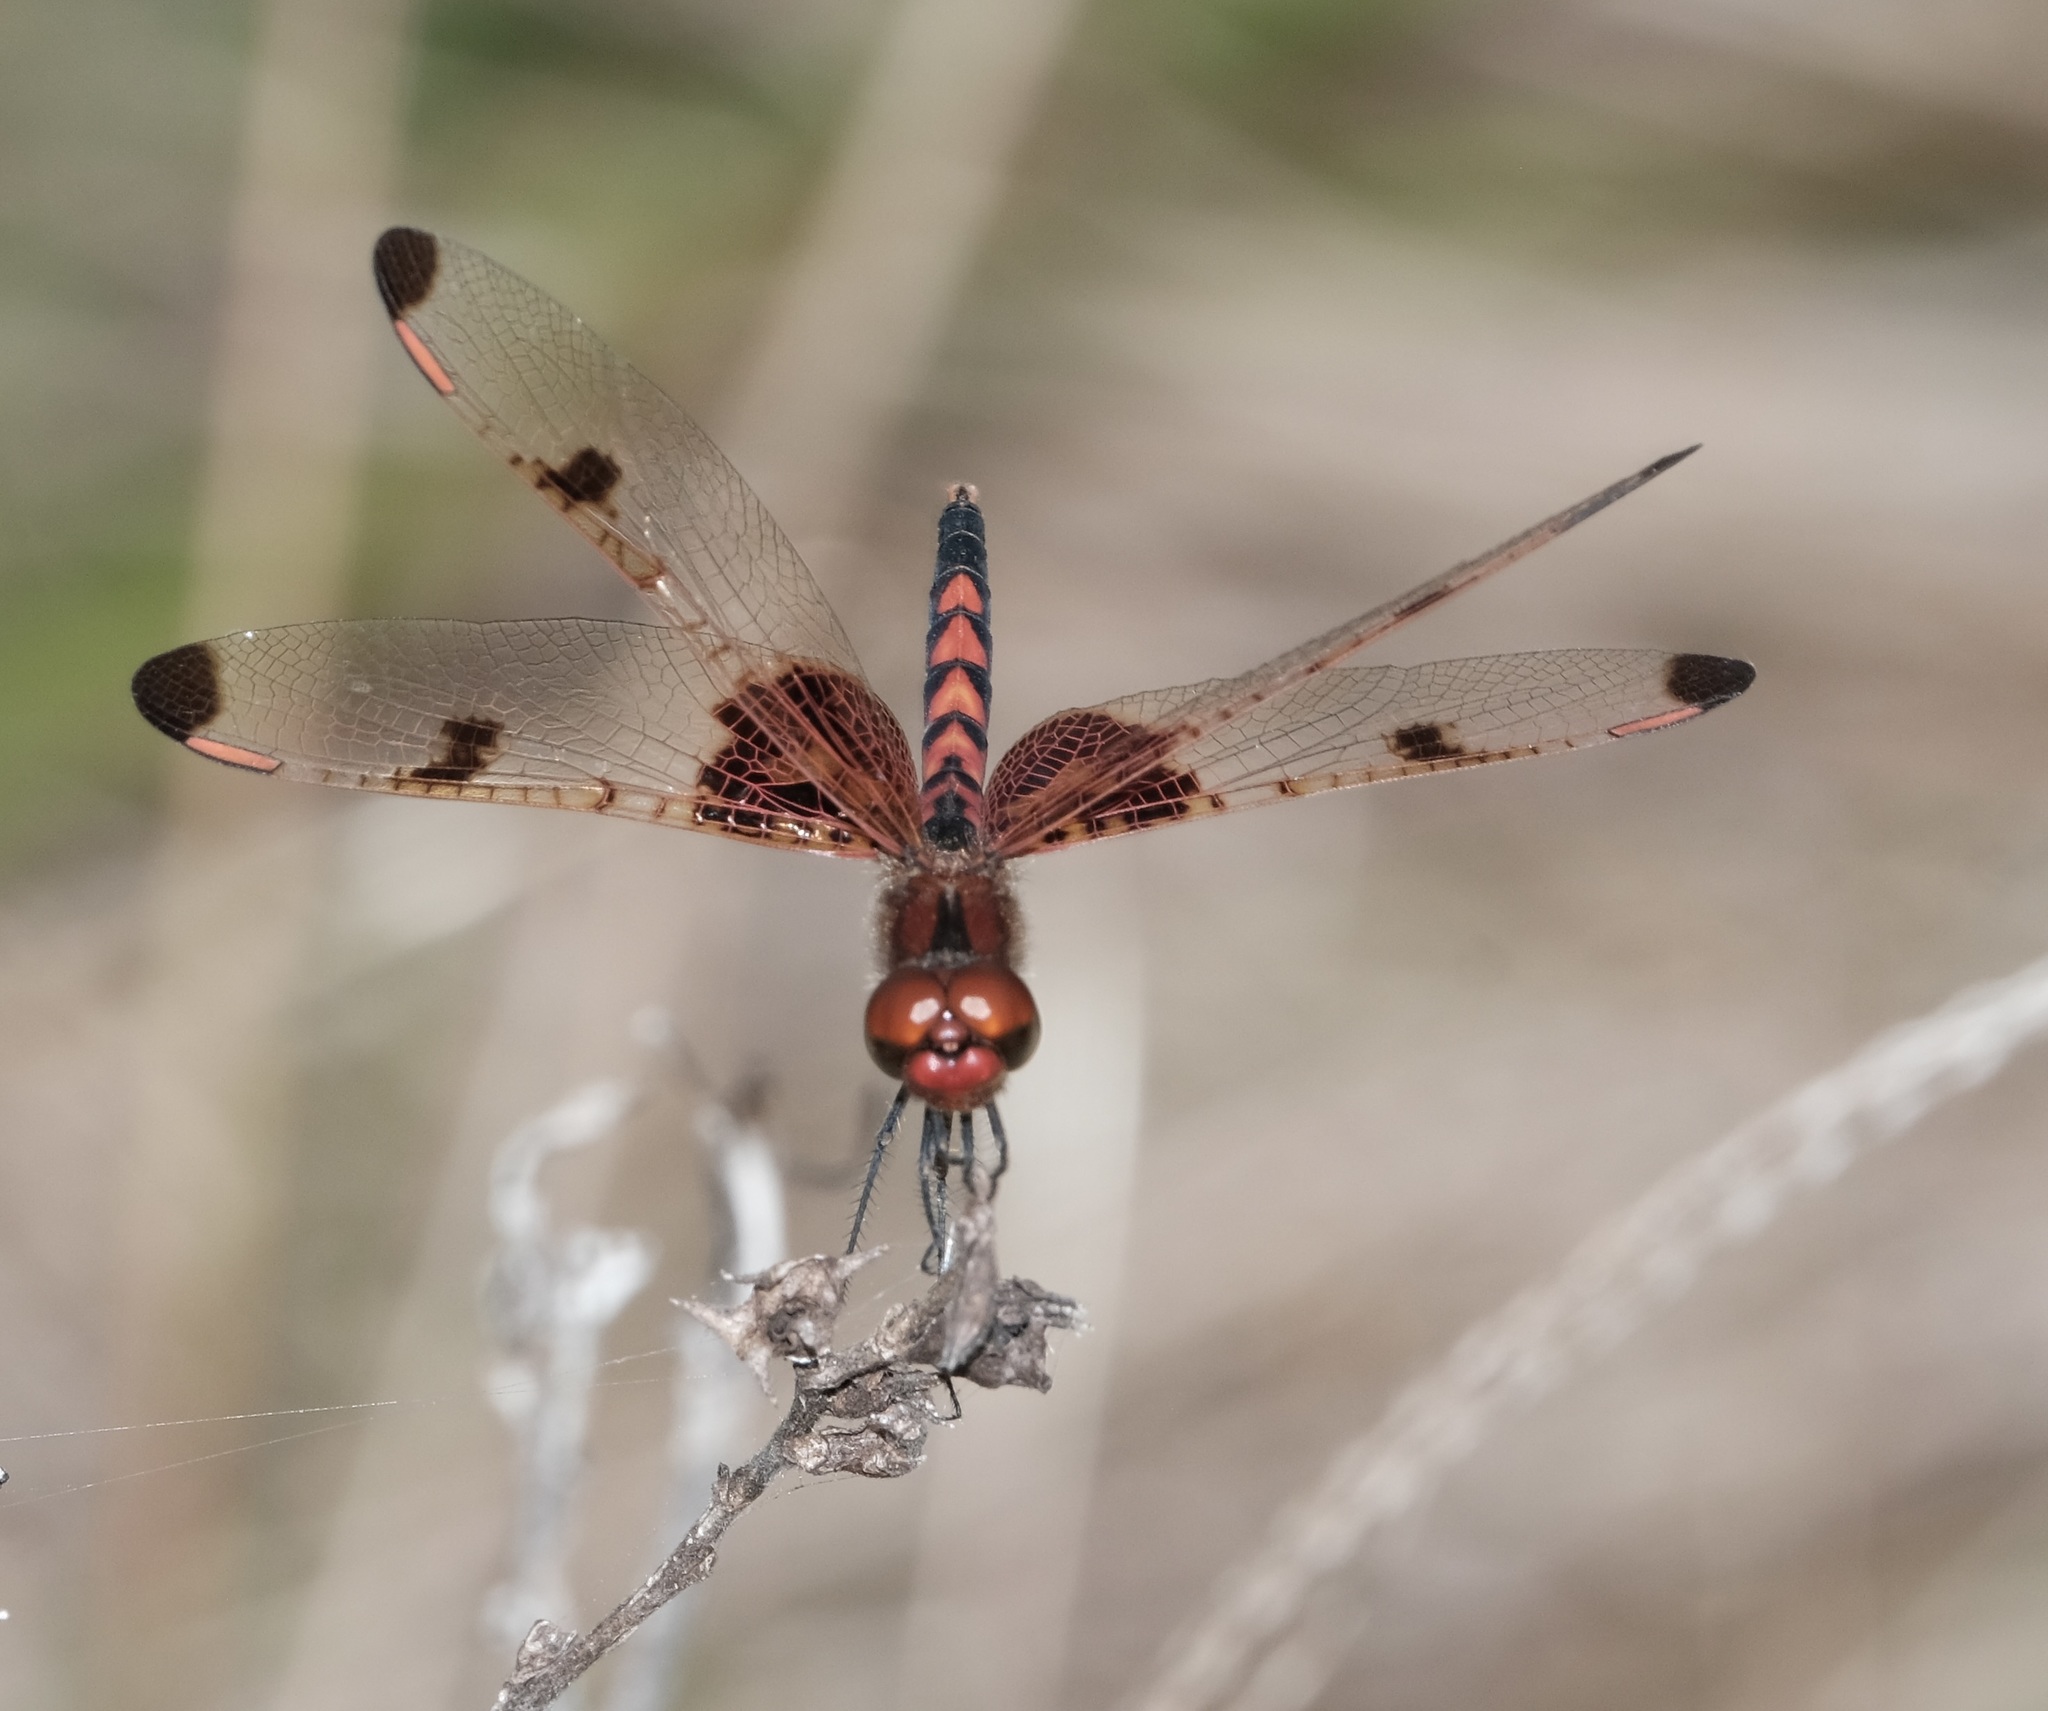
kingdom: Animalia
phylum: Arthropoda
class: Insecta
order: Odonata
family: Libellulidae
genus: Celithemis
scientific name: Celithemis elisa
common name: Calico pennant
